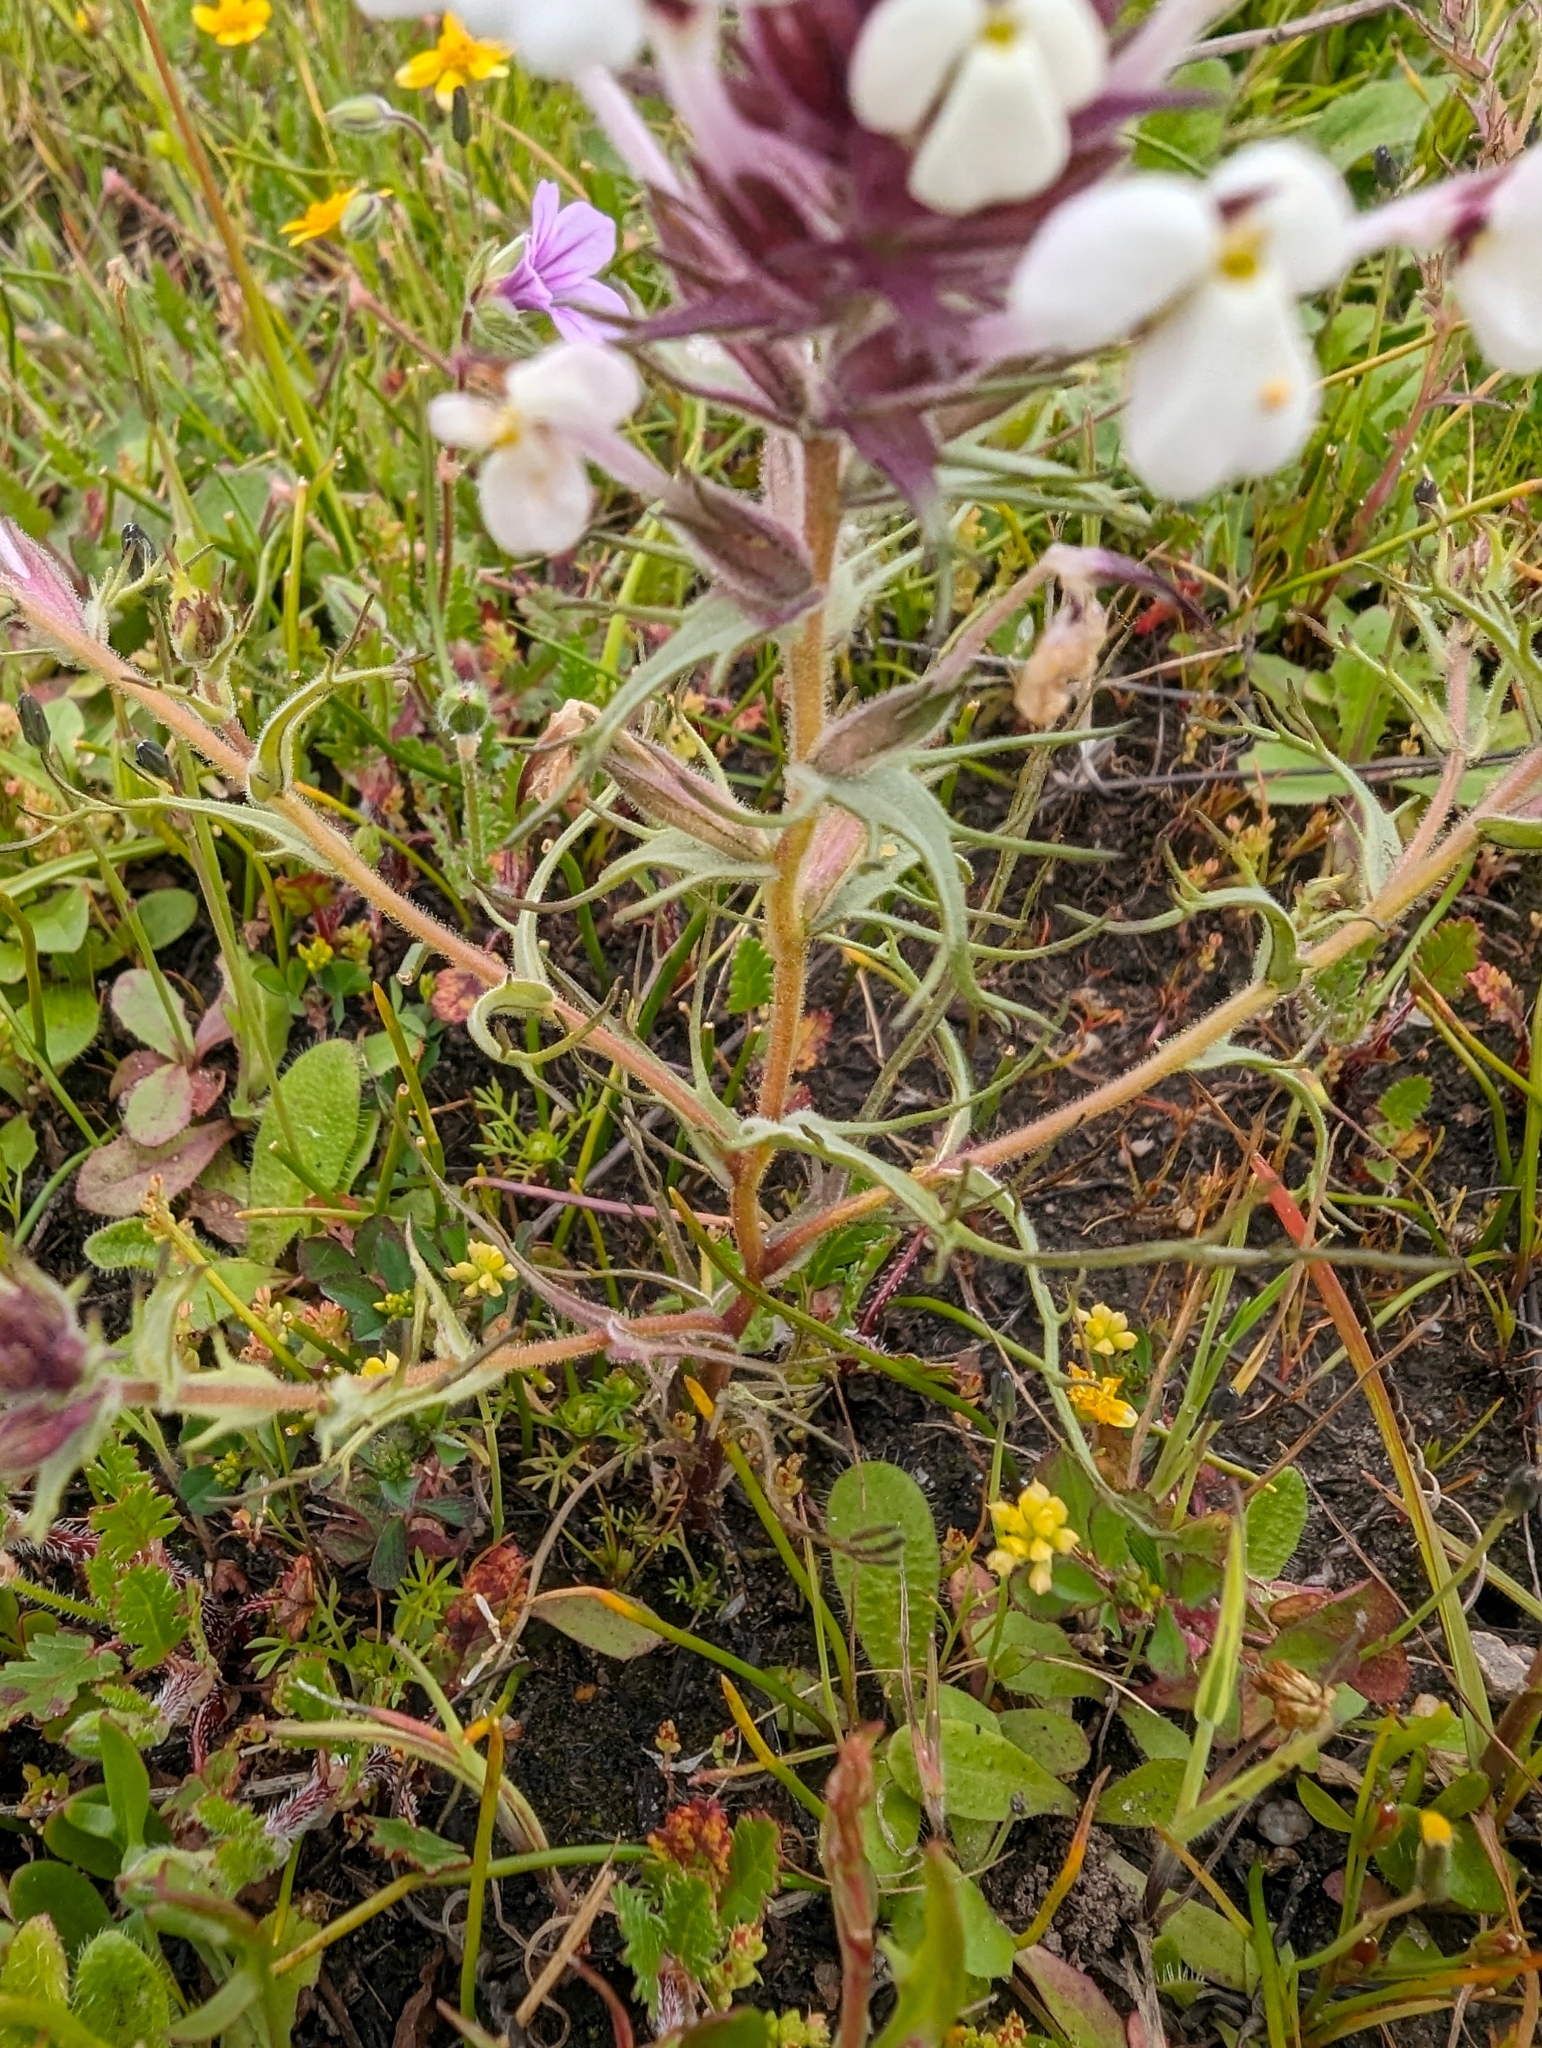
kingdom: Plantae
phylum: Tracheophyta
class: Magnoliopsida
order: Lamiales
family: Orobanchaceae
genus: Triphysaria
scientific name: Triphysaria eriantha
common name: Johnny-tuck
